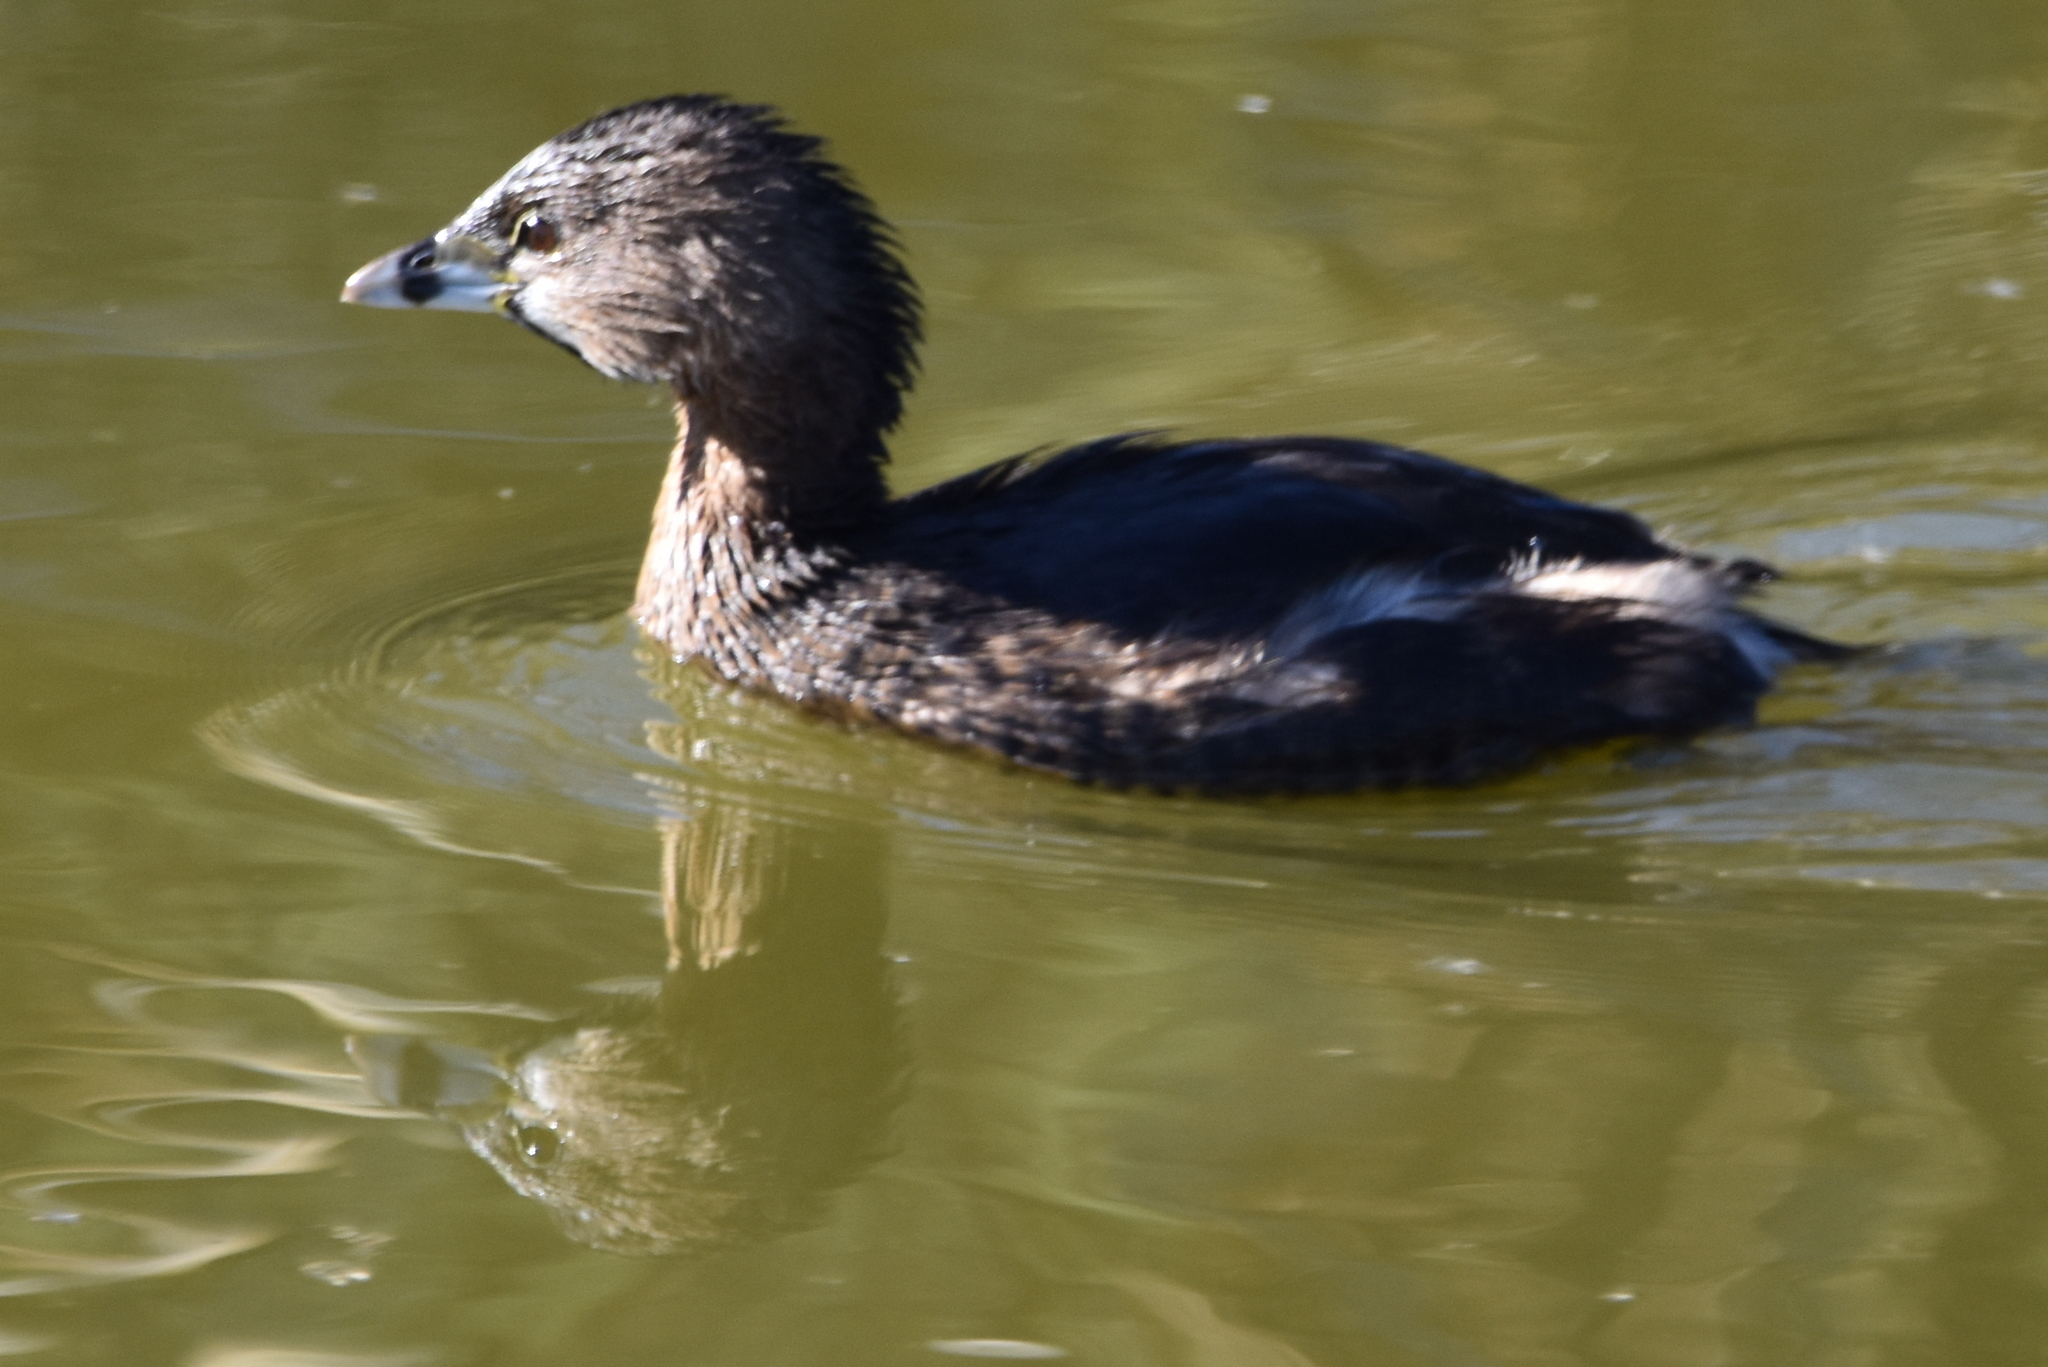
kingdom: Animalia
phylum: Chordata
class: Aves
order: Podicipediformes
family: Podicipedidae
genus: Podilymbus
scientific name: Podilymbus podiceps
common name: Pied-billed grebe
